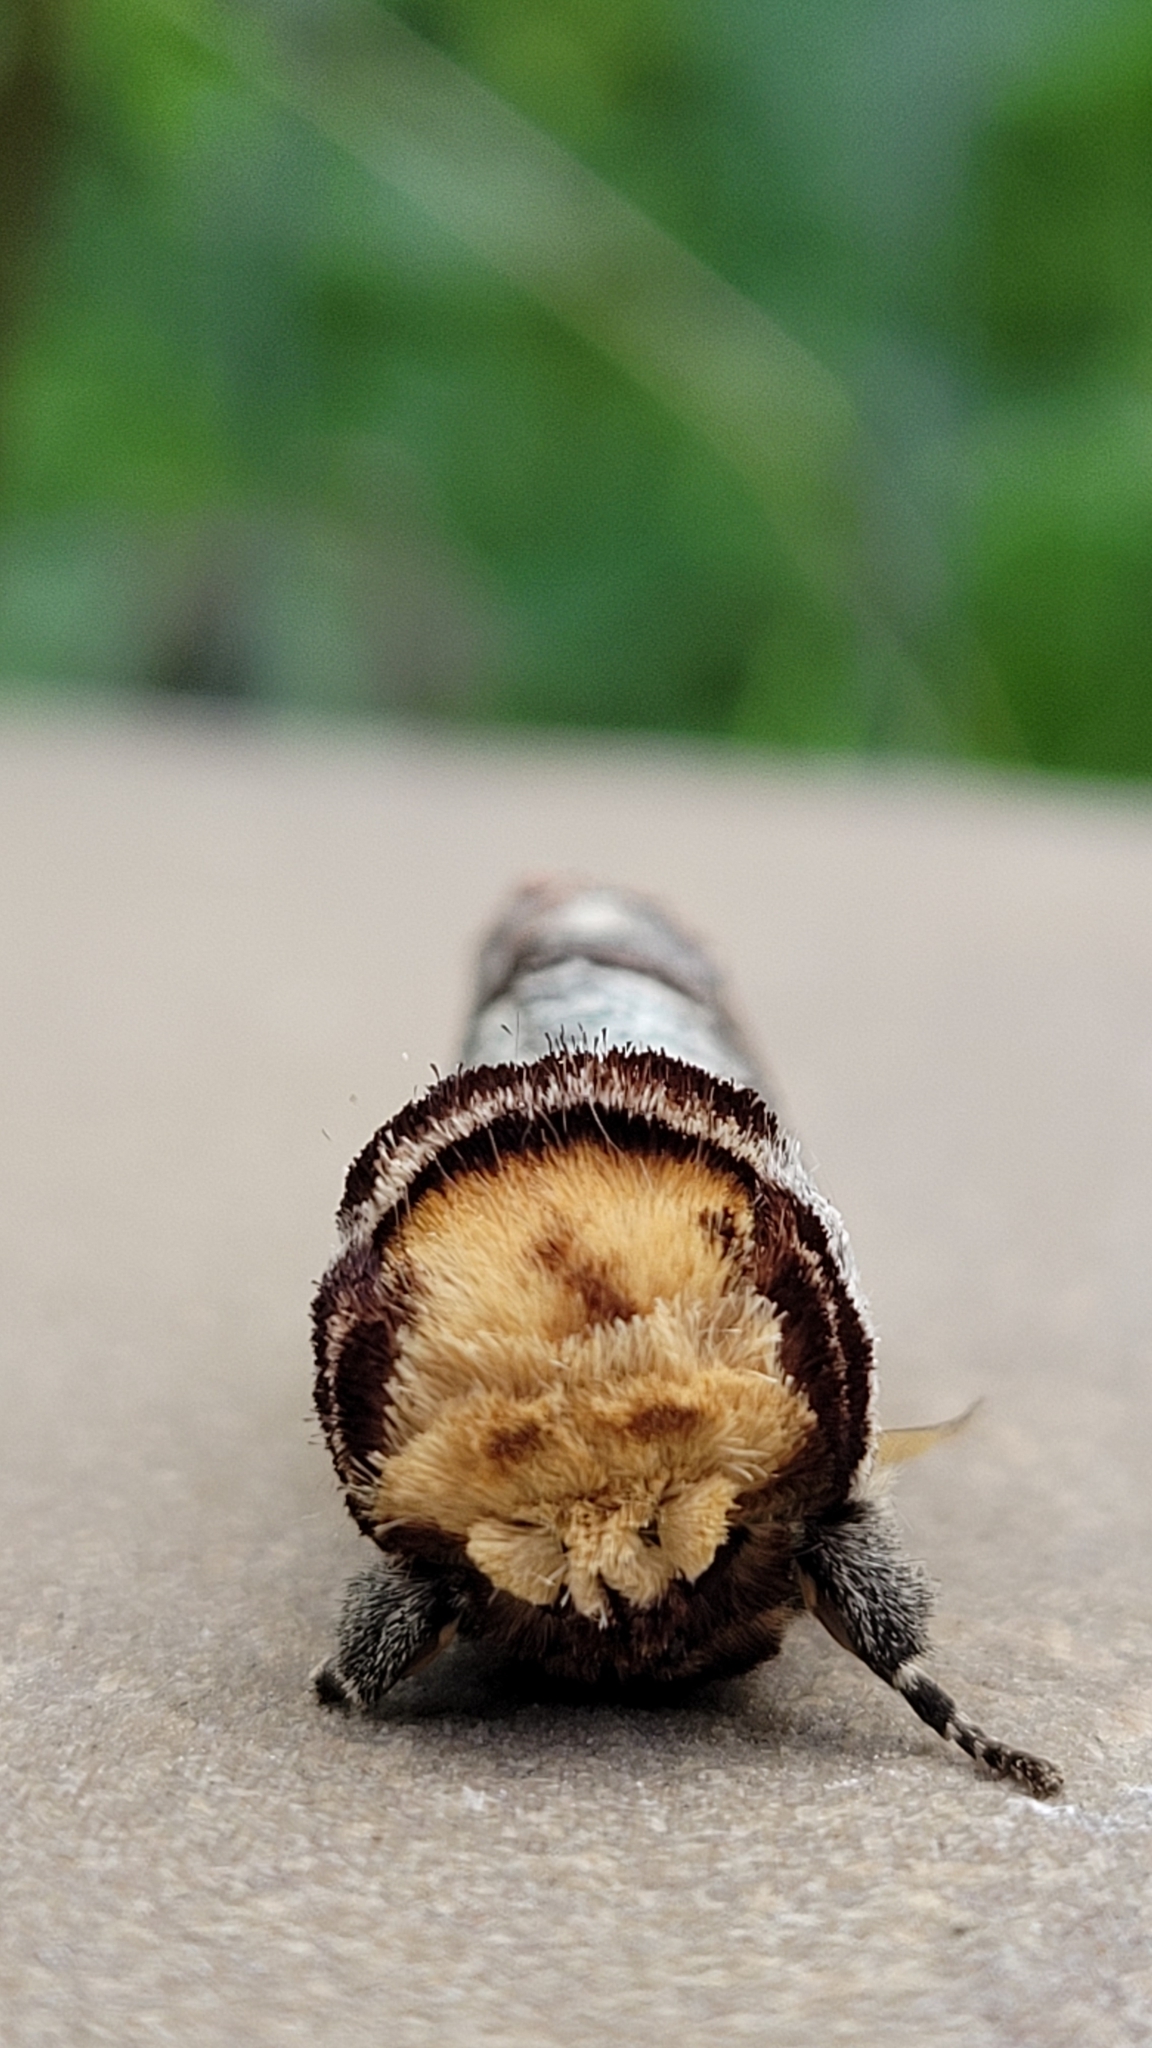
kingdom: Animalia
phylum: Arthropoda
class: Insecta
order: Lepidoptera
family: Notodontidae
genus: Phalera
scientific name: Phalera bucephala
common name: Buff-tip
